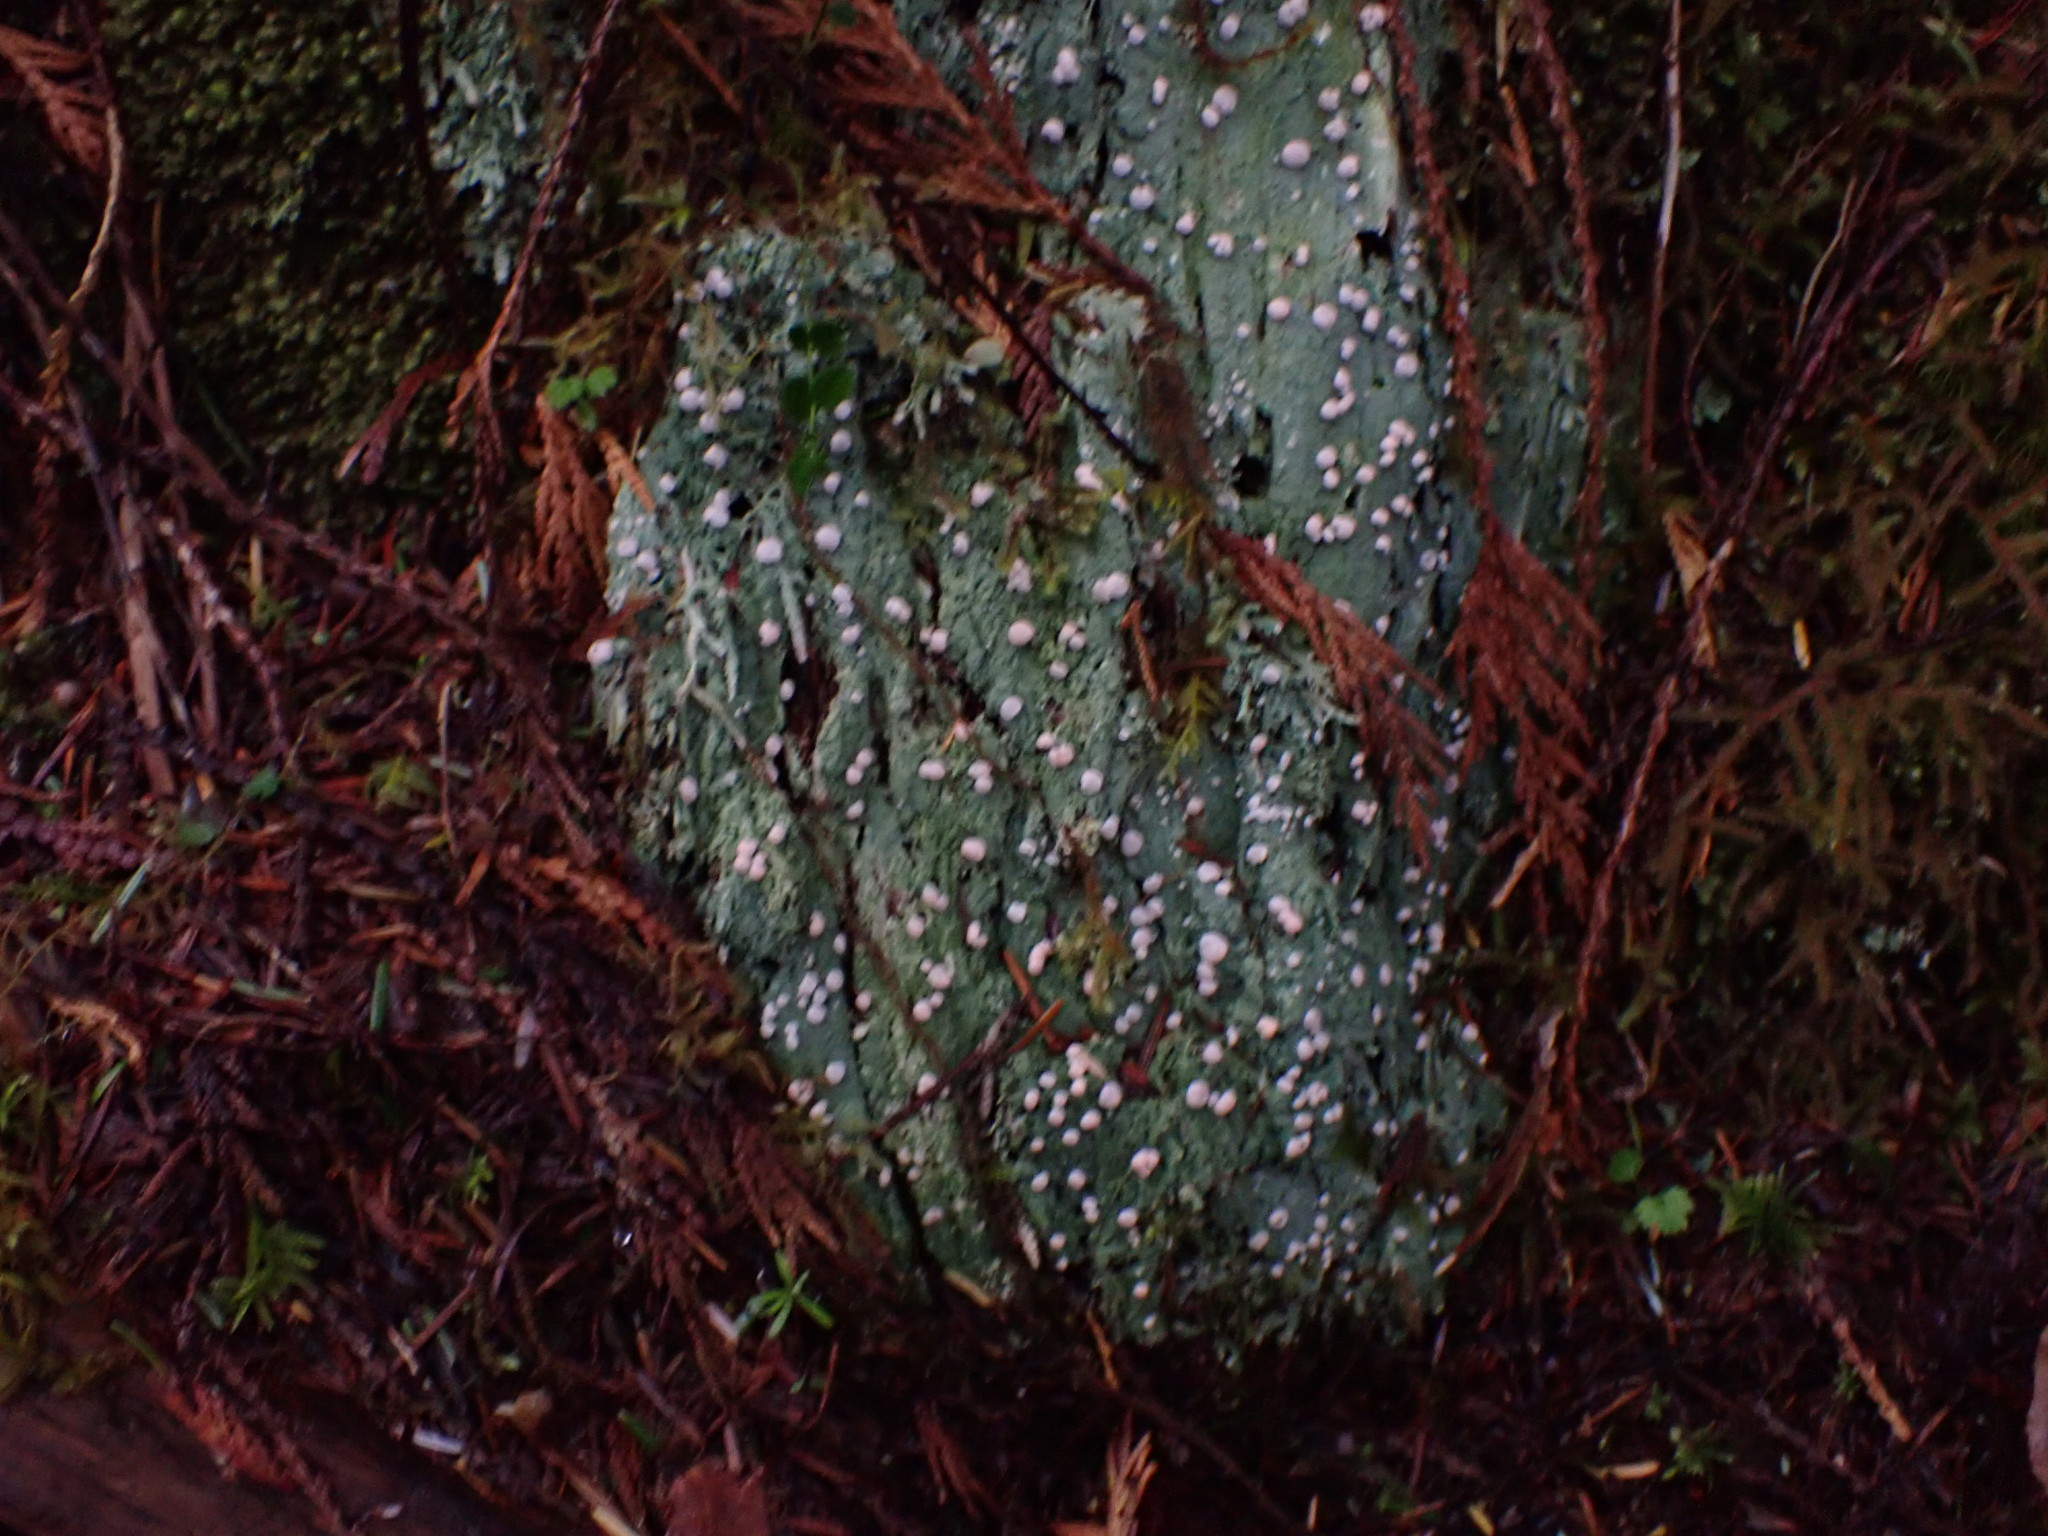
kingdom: Fungi
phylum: Ascomycota
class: Lecanoromycetes
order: Pertusariales
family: Icmadophilaceae
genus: Icmadophila
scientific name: Icmadophila ericetorum
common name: Candy lichen
